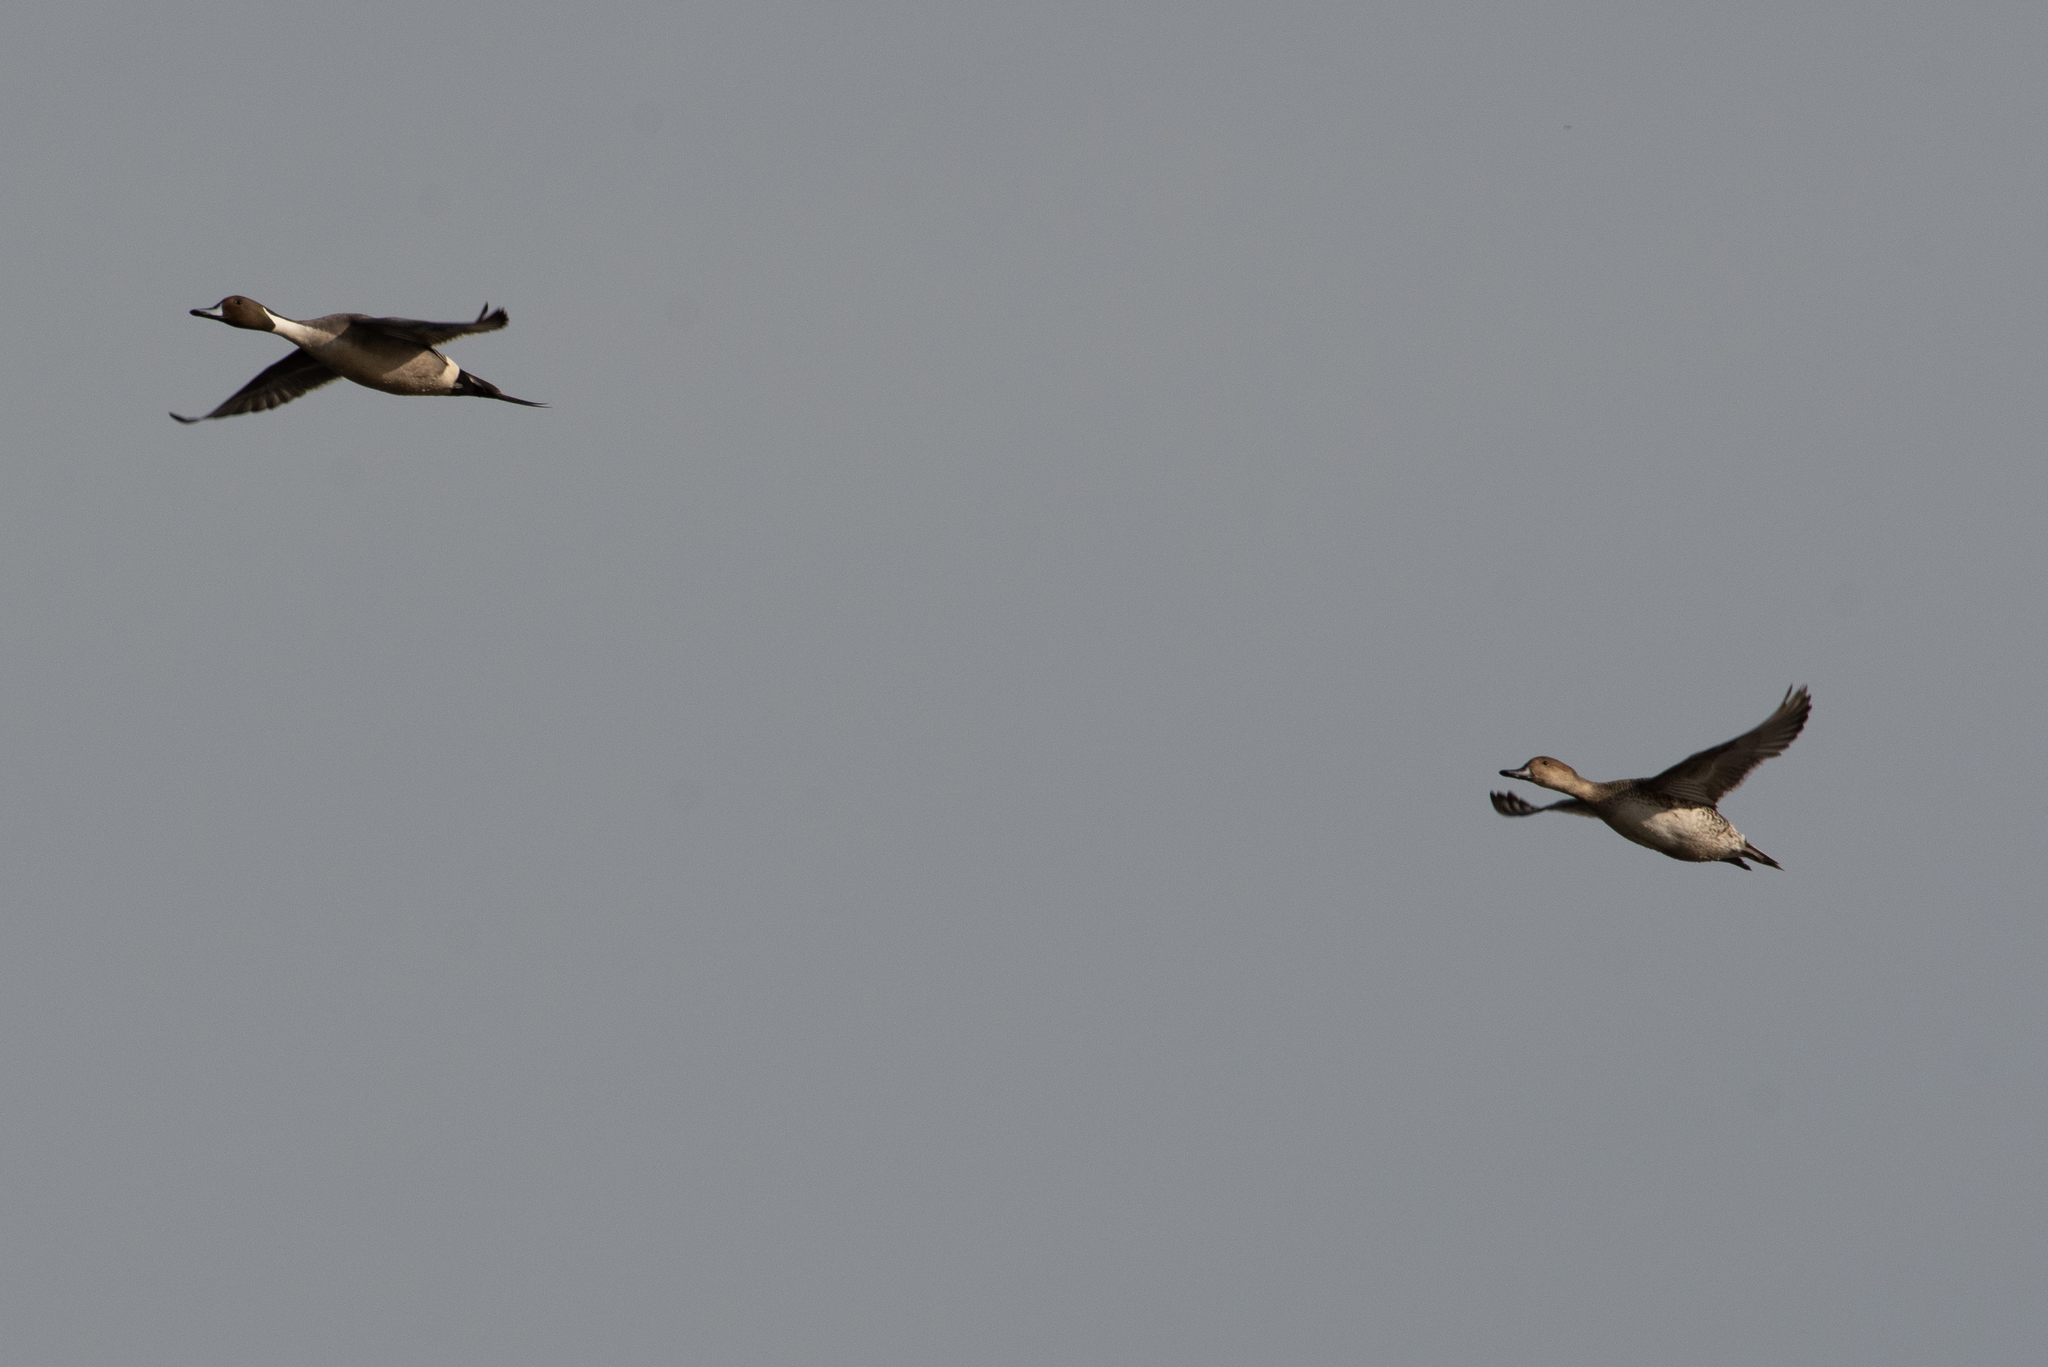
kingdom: Animalia
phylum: Chordata
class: Aves
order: Anseriformes
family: Anatidae
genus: Anas
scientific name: Anas acuta
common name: Northern pintail
